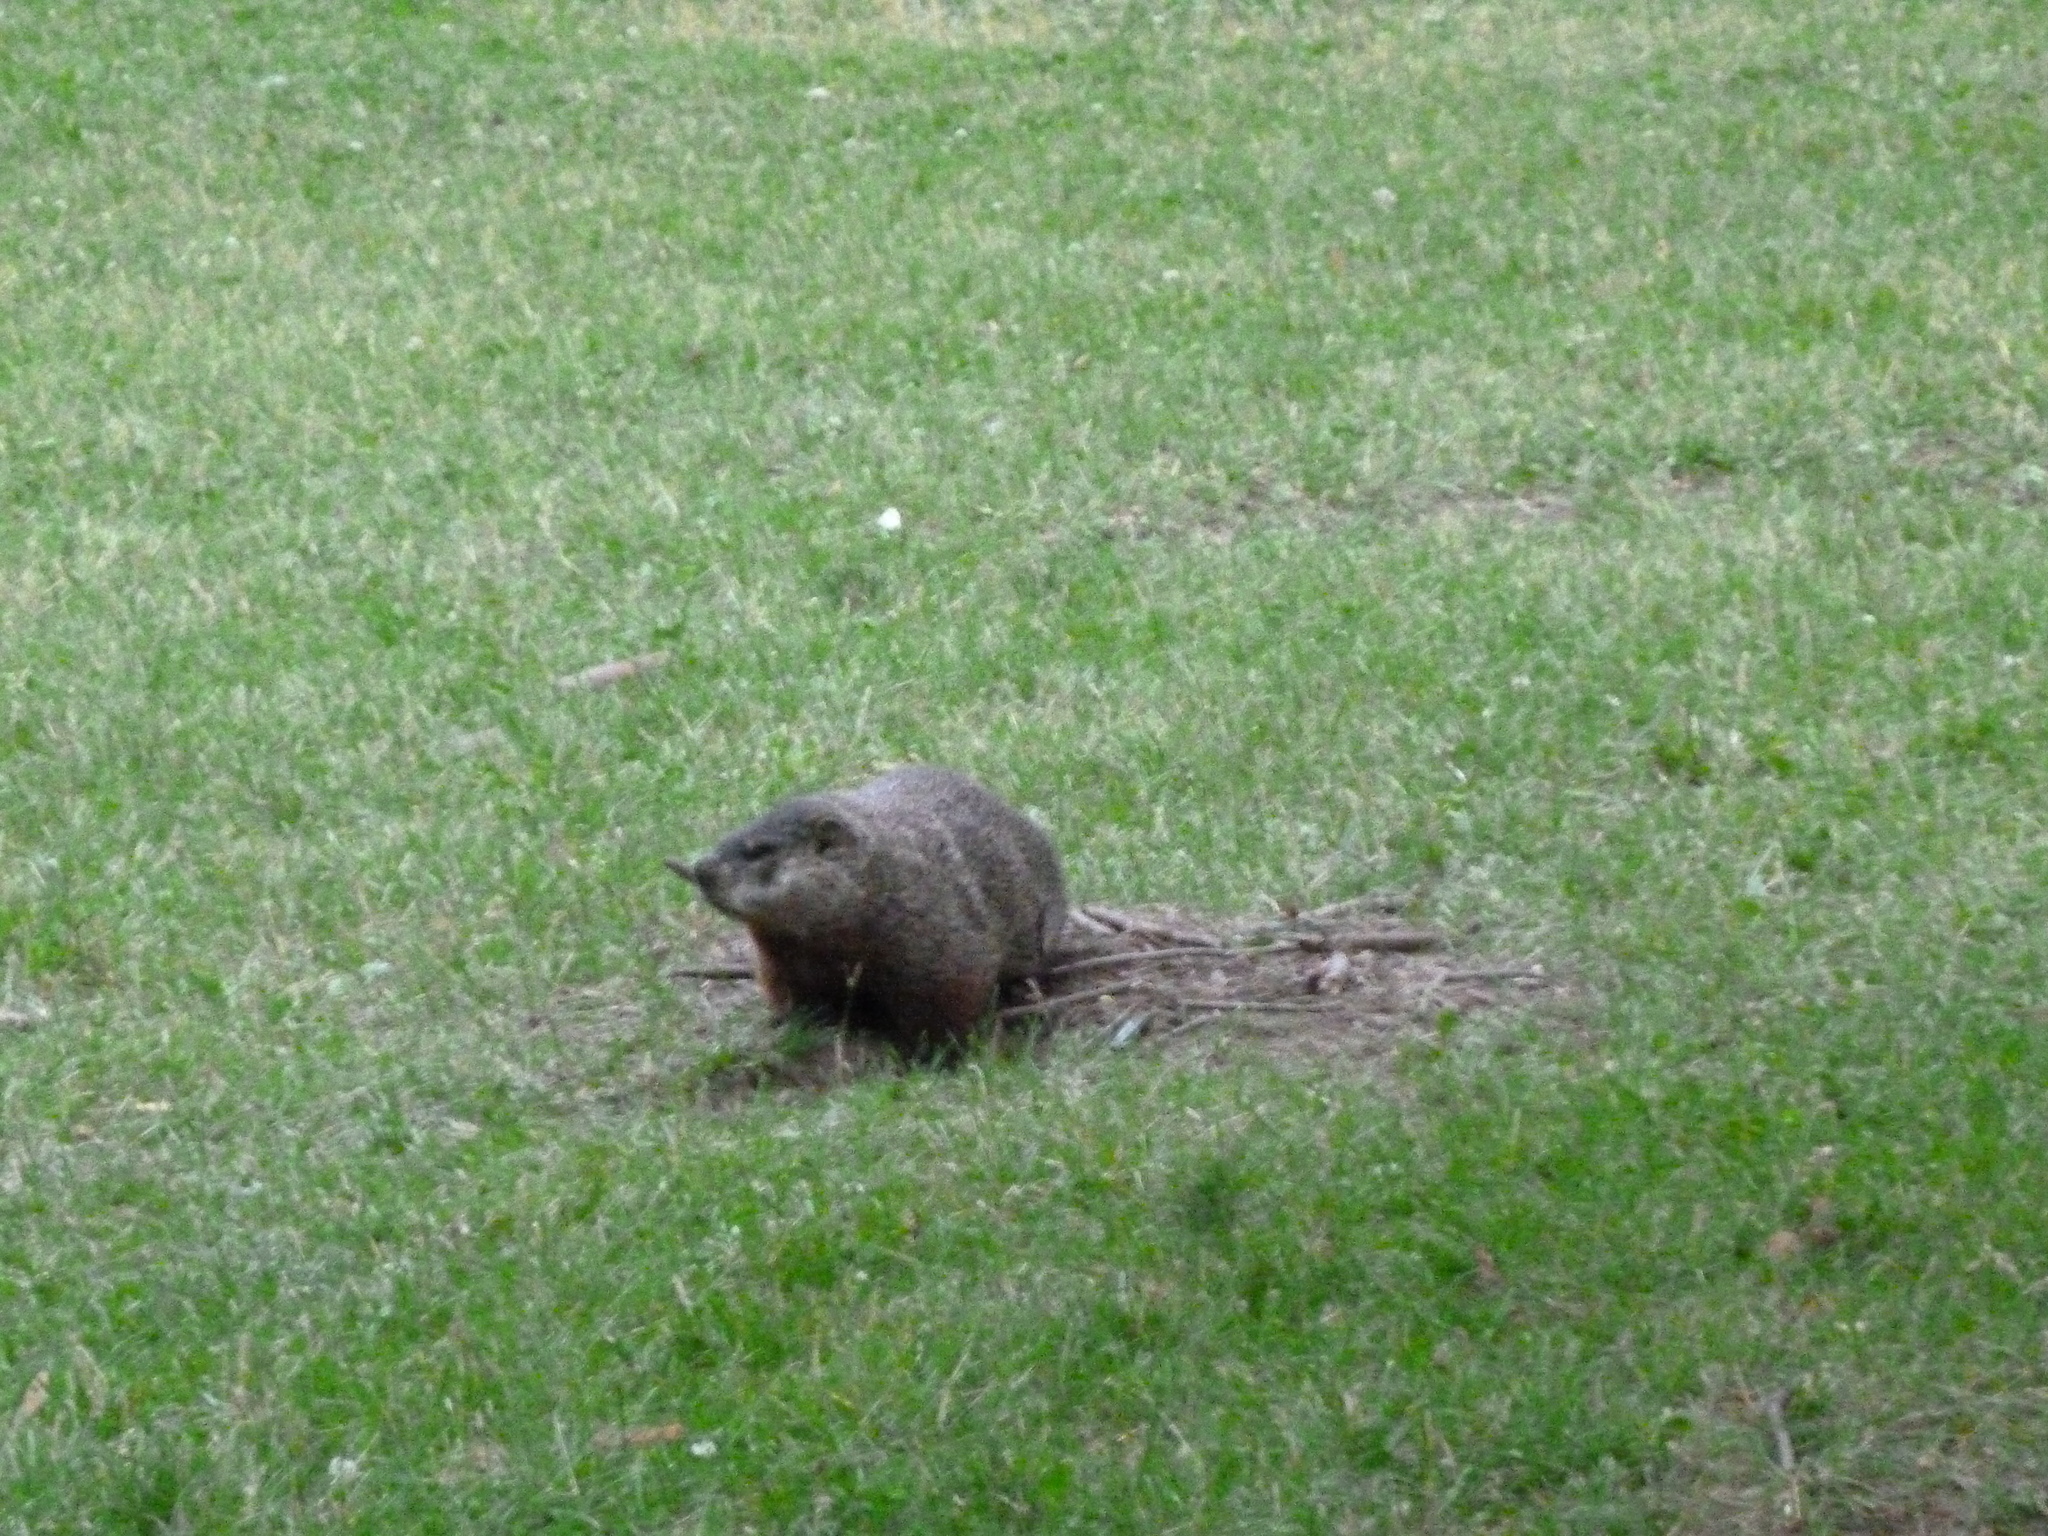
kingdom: Animalia
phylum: Chordata
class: Mammalia
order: Rodentia
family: Sciuridae
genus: Marmota
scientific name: Marmota monax
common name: Groundhog
